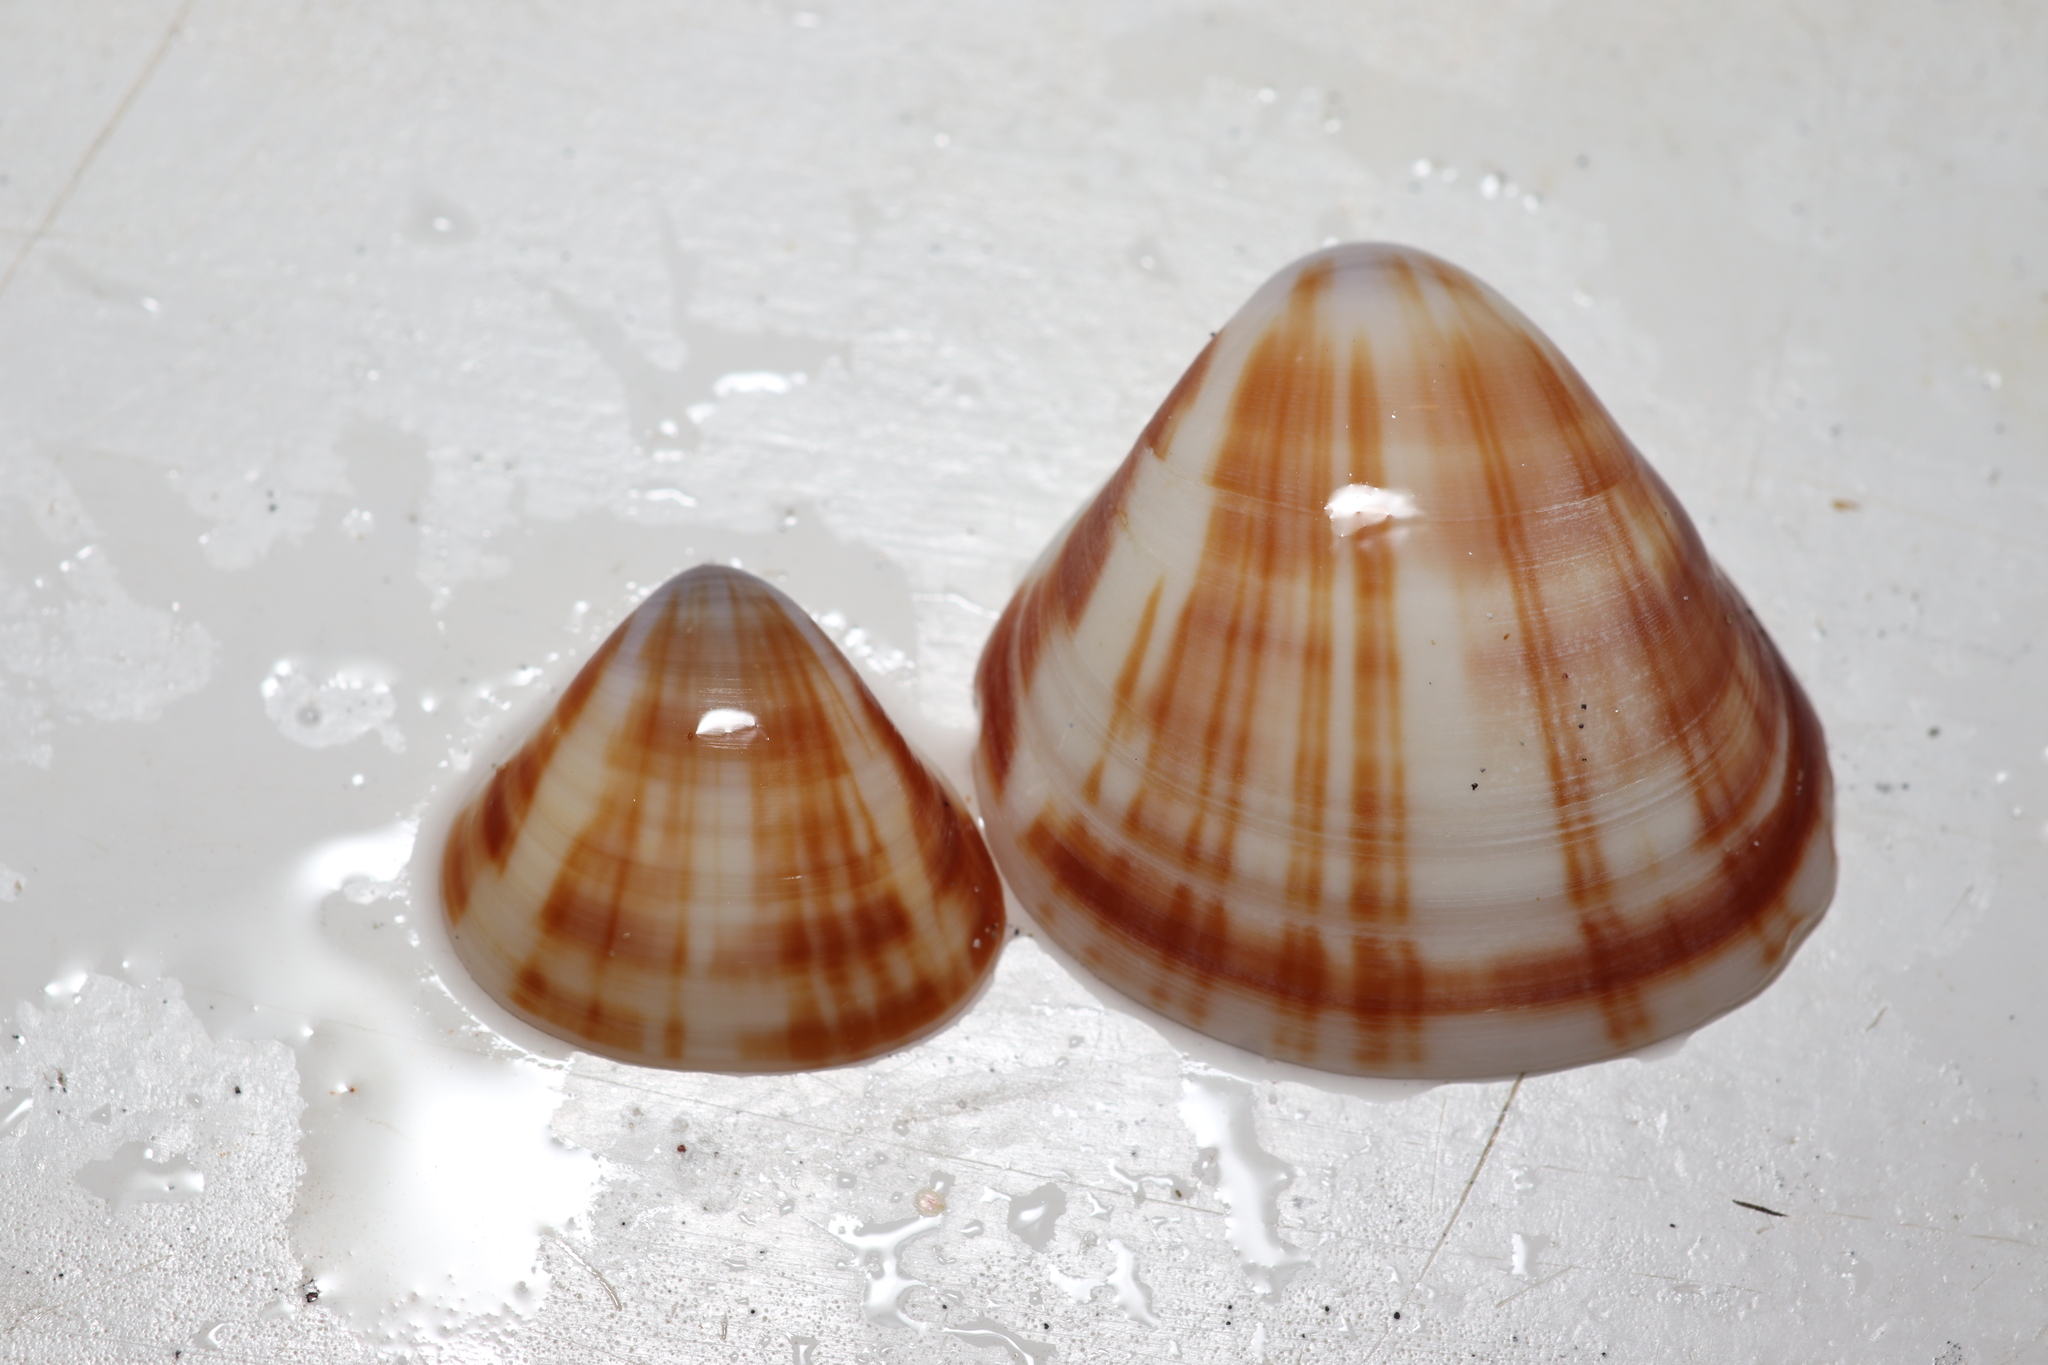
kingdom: Animalia
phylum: Mollusca
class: Bivalvia
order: Venerida
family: Veneridae
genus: Tivela
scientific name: Tivela mactroides
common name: Trigonal tivela
